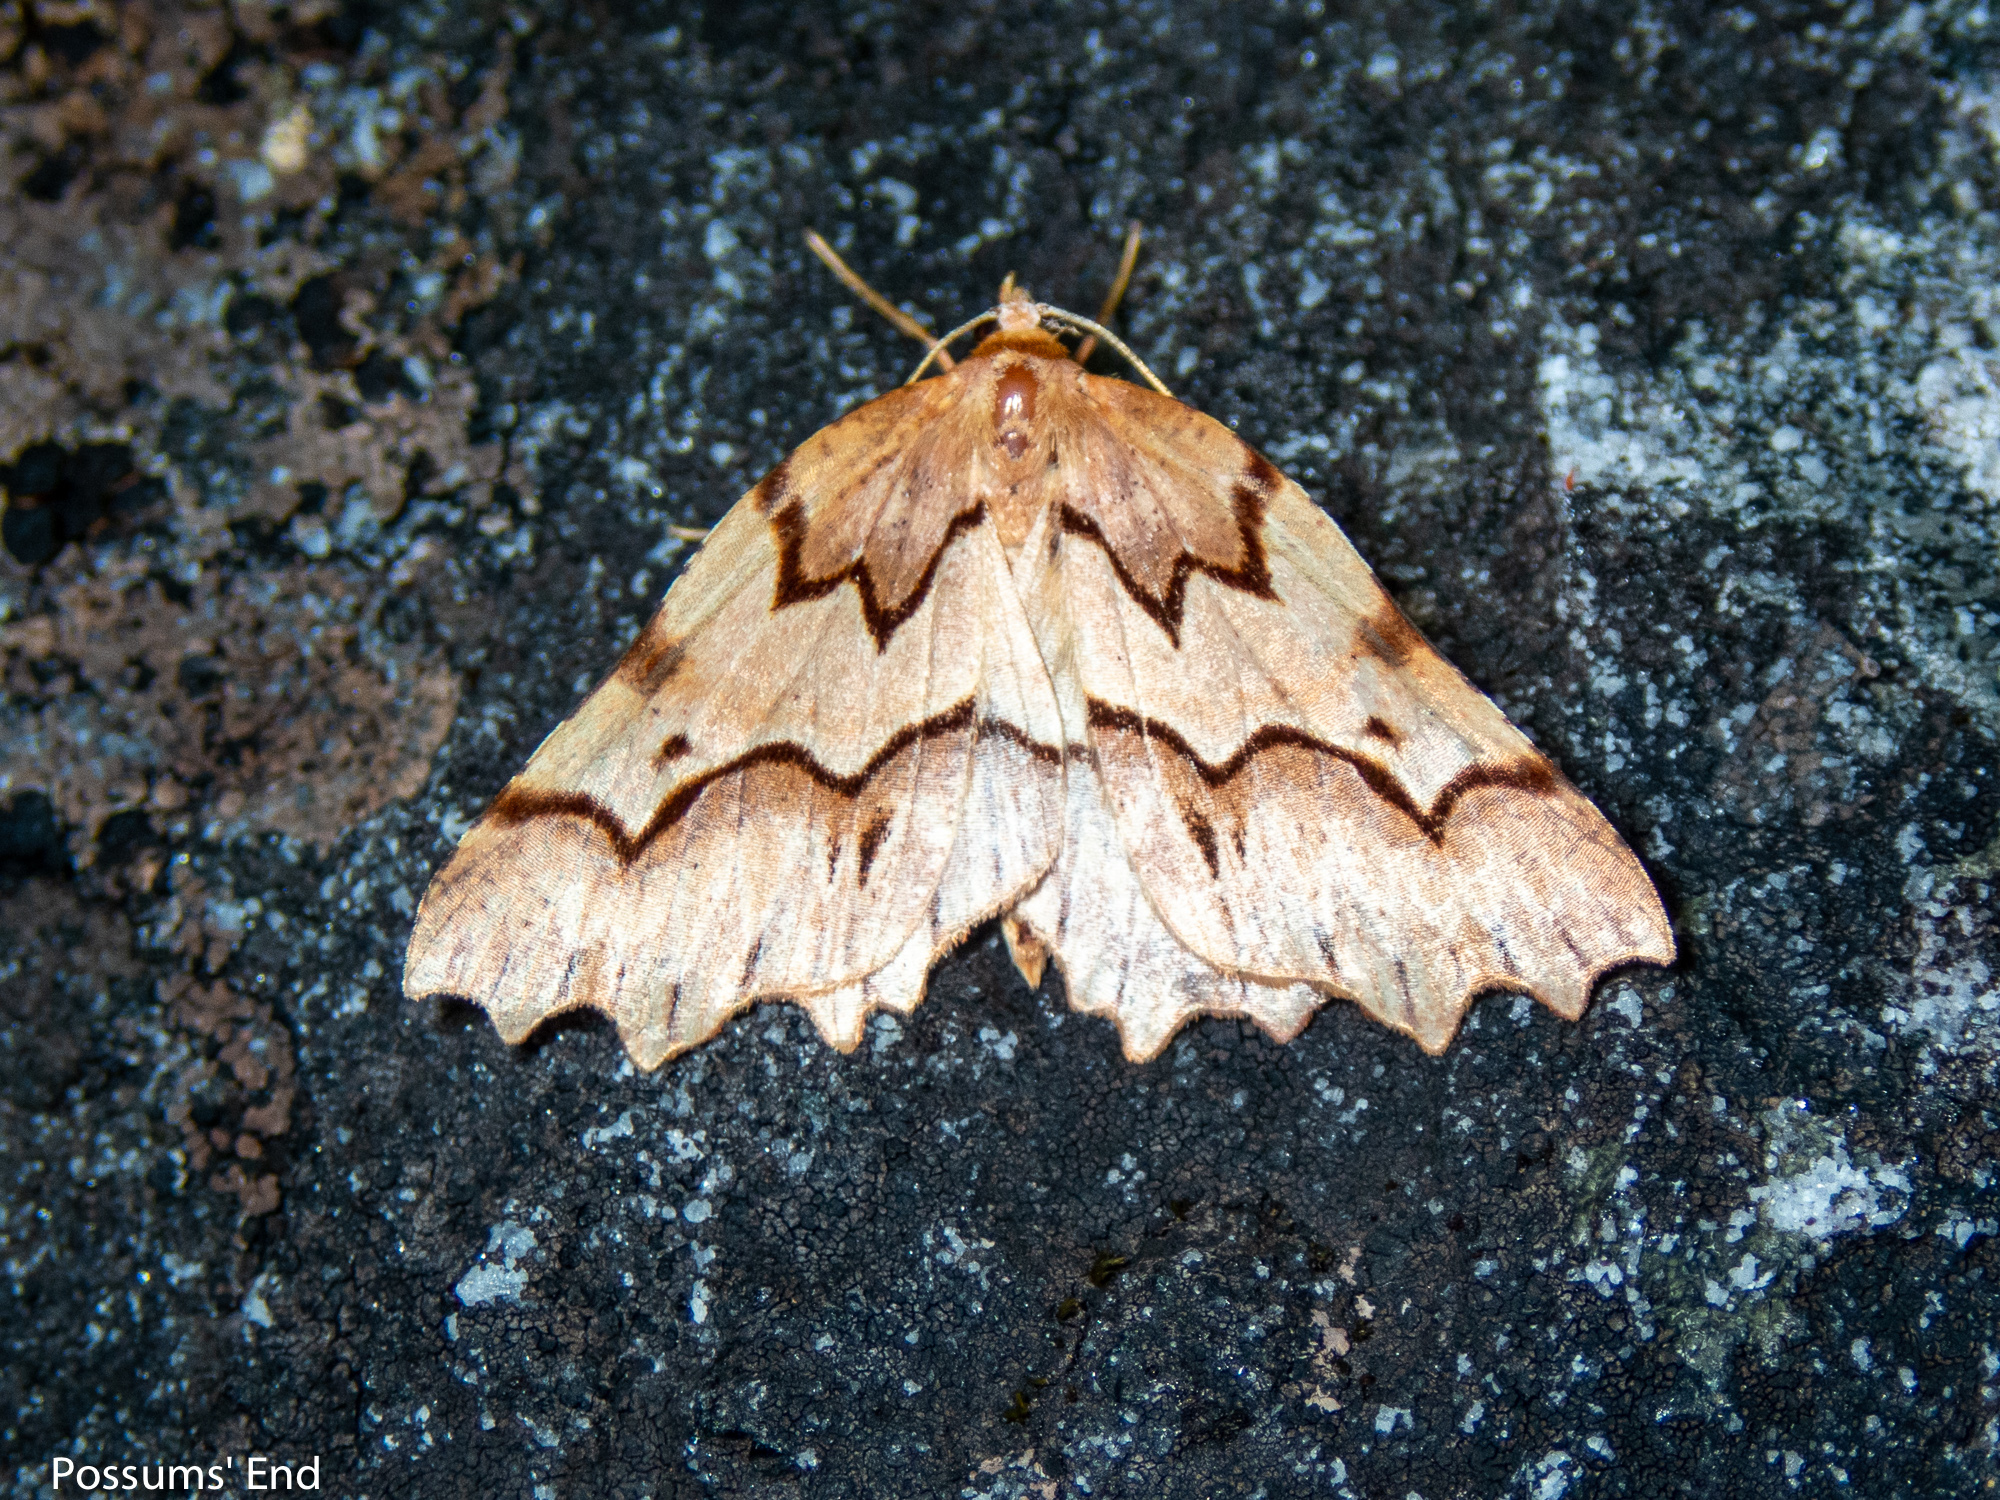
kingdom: Animalia
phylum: Arthropoda
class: Insecta
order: Lepidoptera
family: Geometridae
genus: Ischalis
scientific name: Ischalis fortinata
